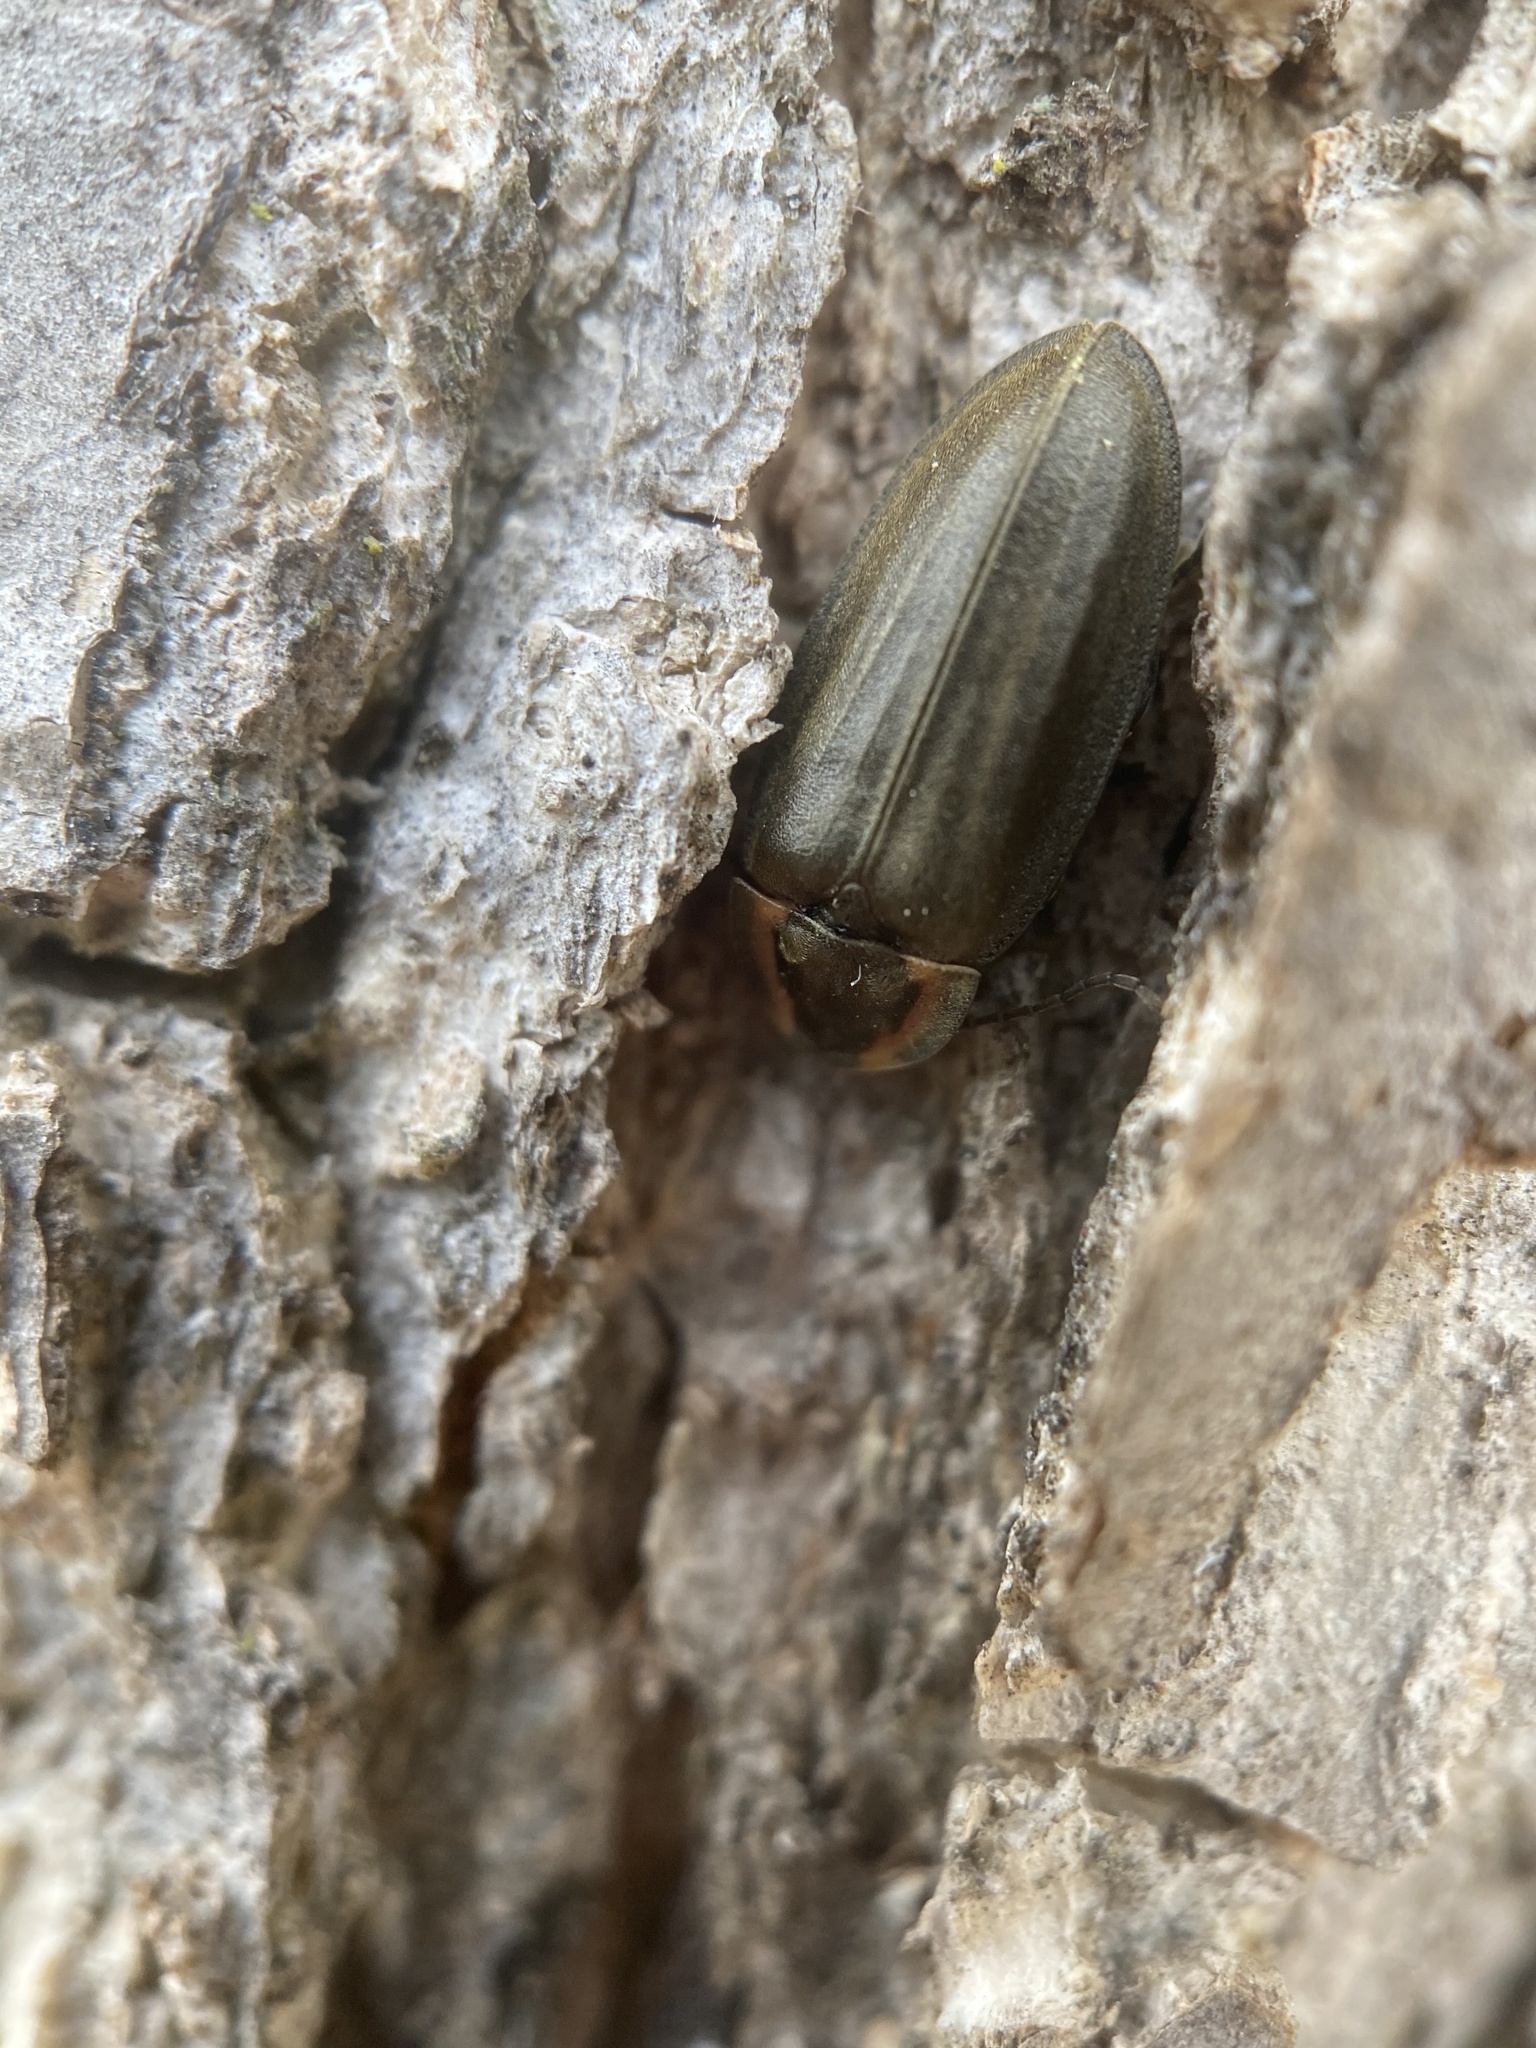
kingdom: Animalia
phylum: Arthropoda
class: Insecta
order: Coleoptera
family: Lampyridae
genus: Photinus
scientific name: Photinus corrusca
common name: Winter firefly
